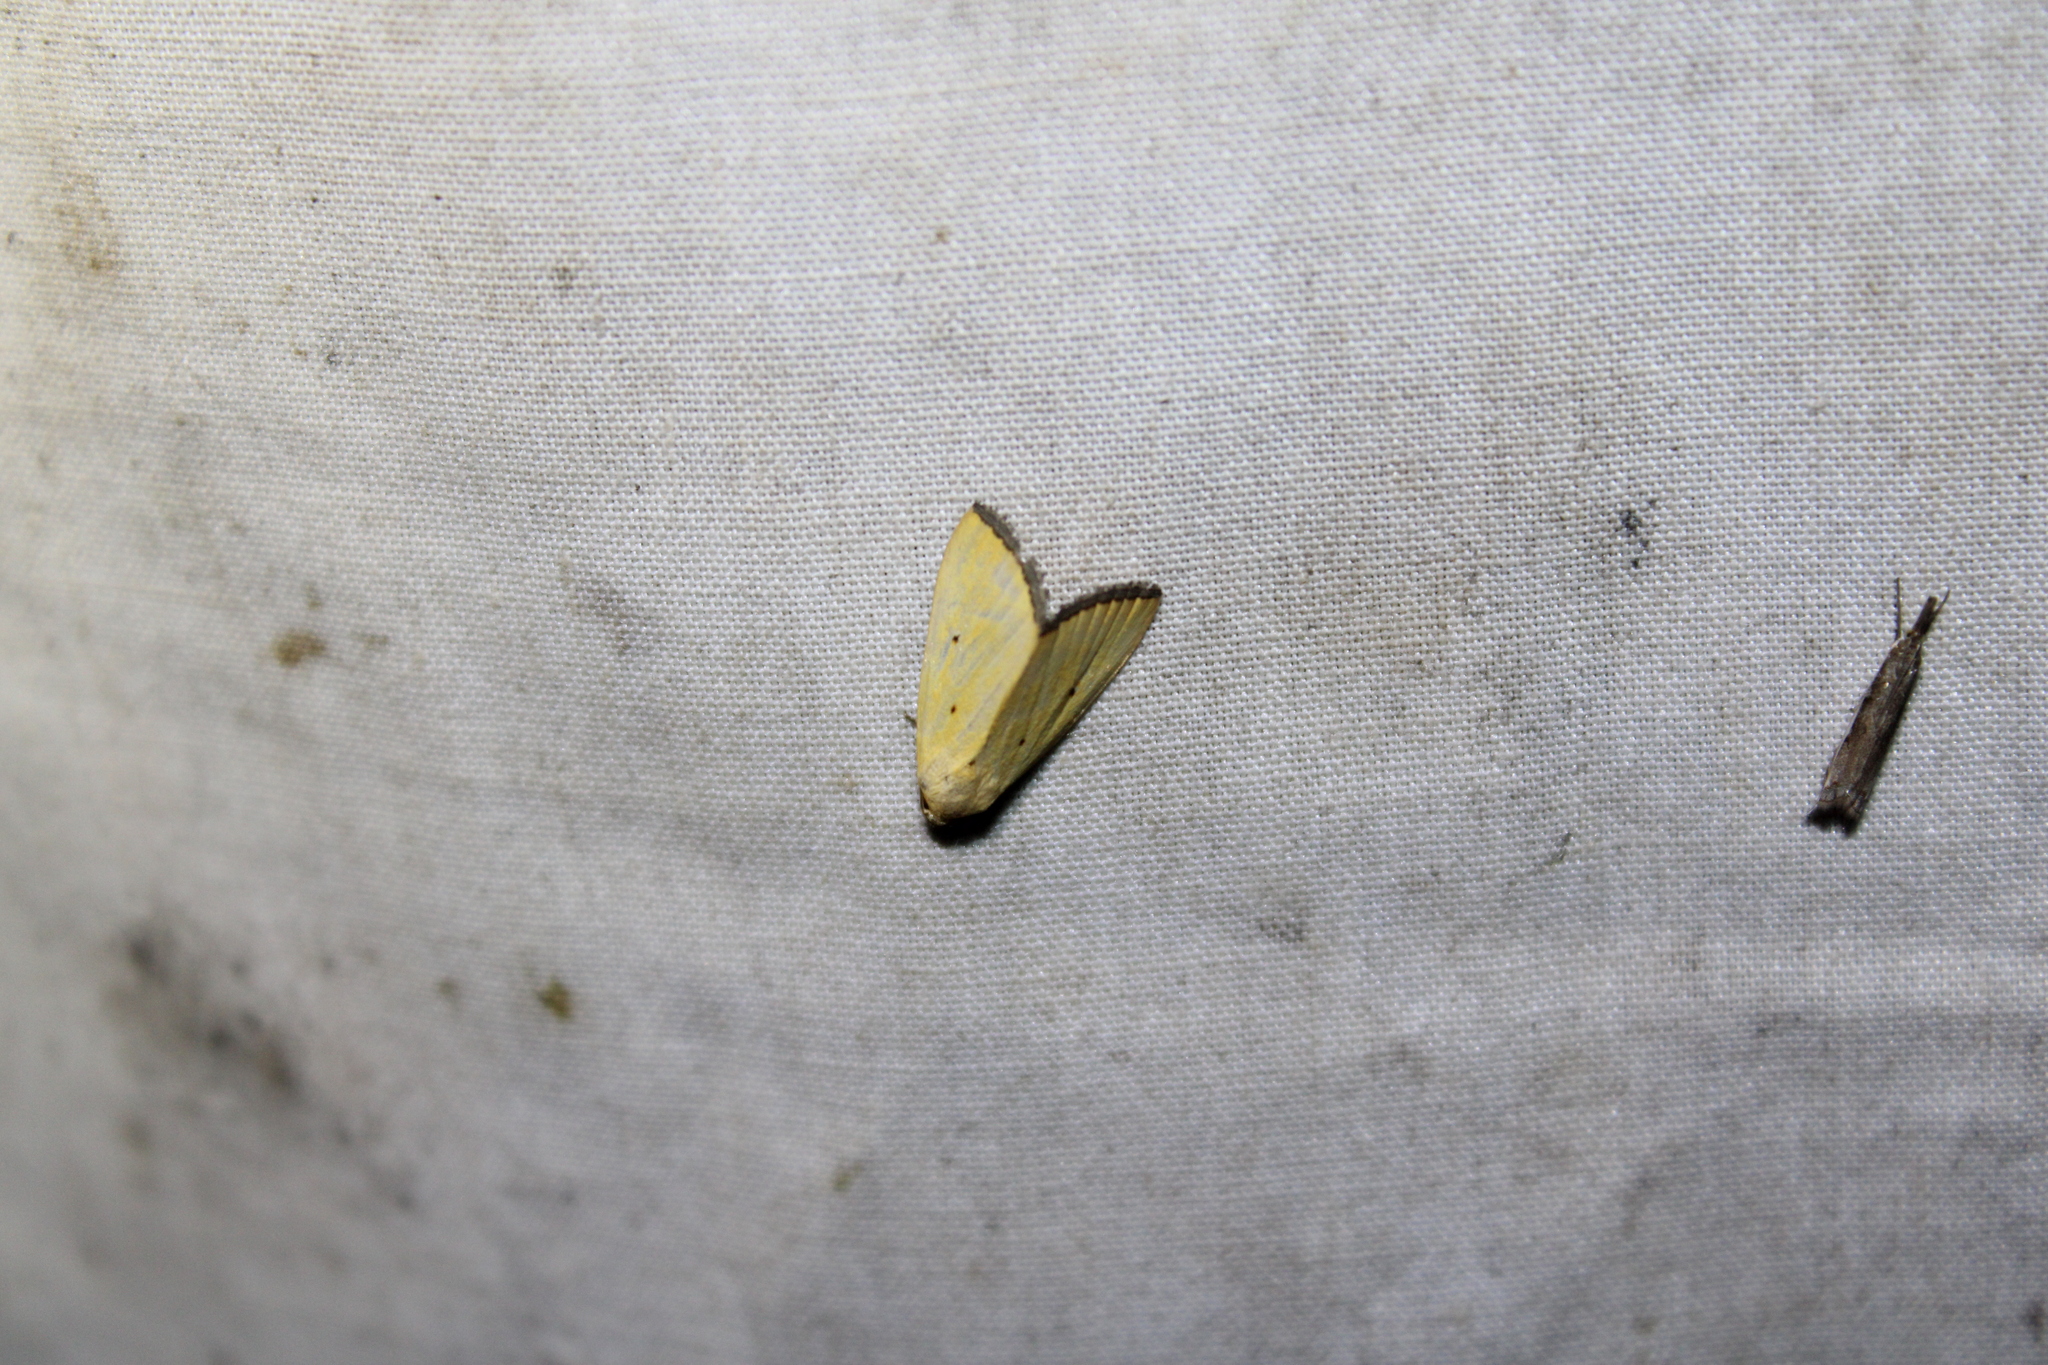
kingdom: Animalia
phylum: Arthropoda
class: Insecta
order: Lepidoptera
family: Noctuidae
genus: Marimatha
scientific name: Marimatha nigrofimbria
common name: Black-bordered lemon moth
